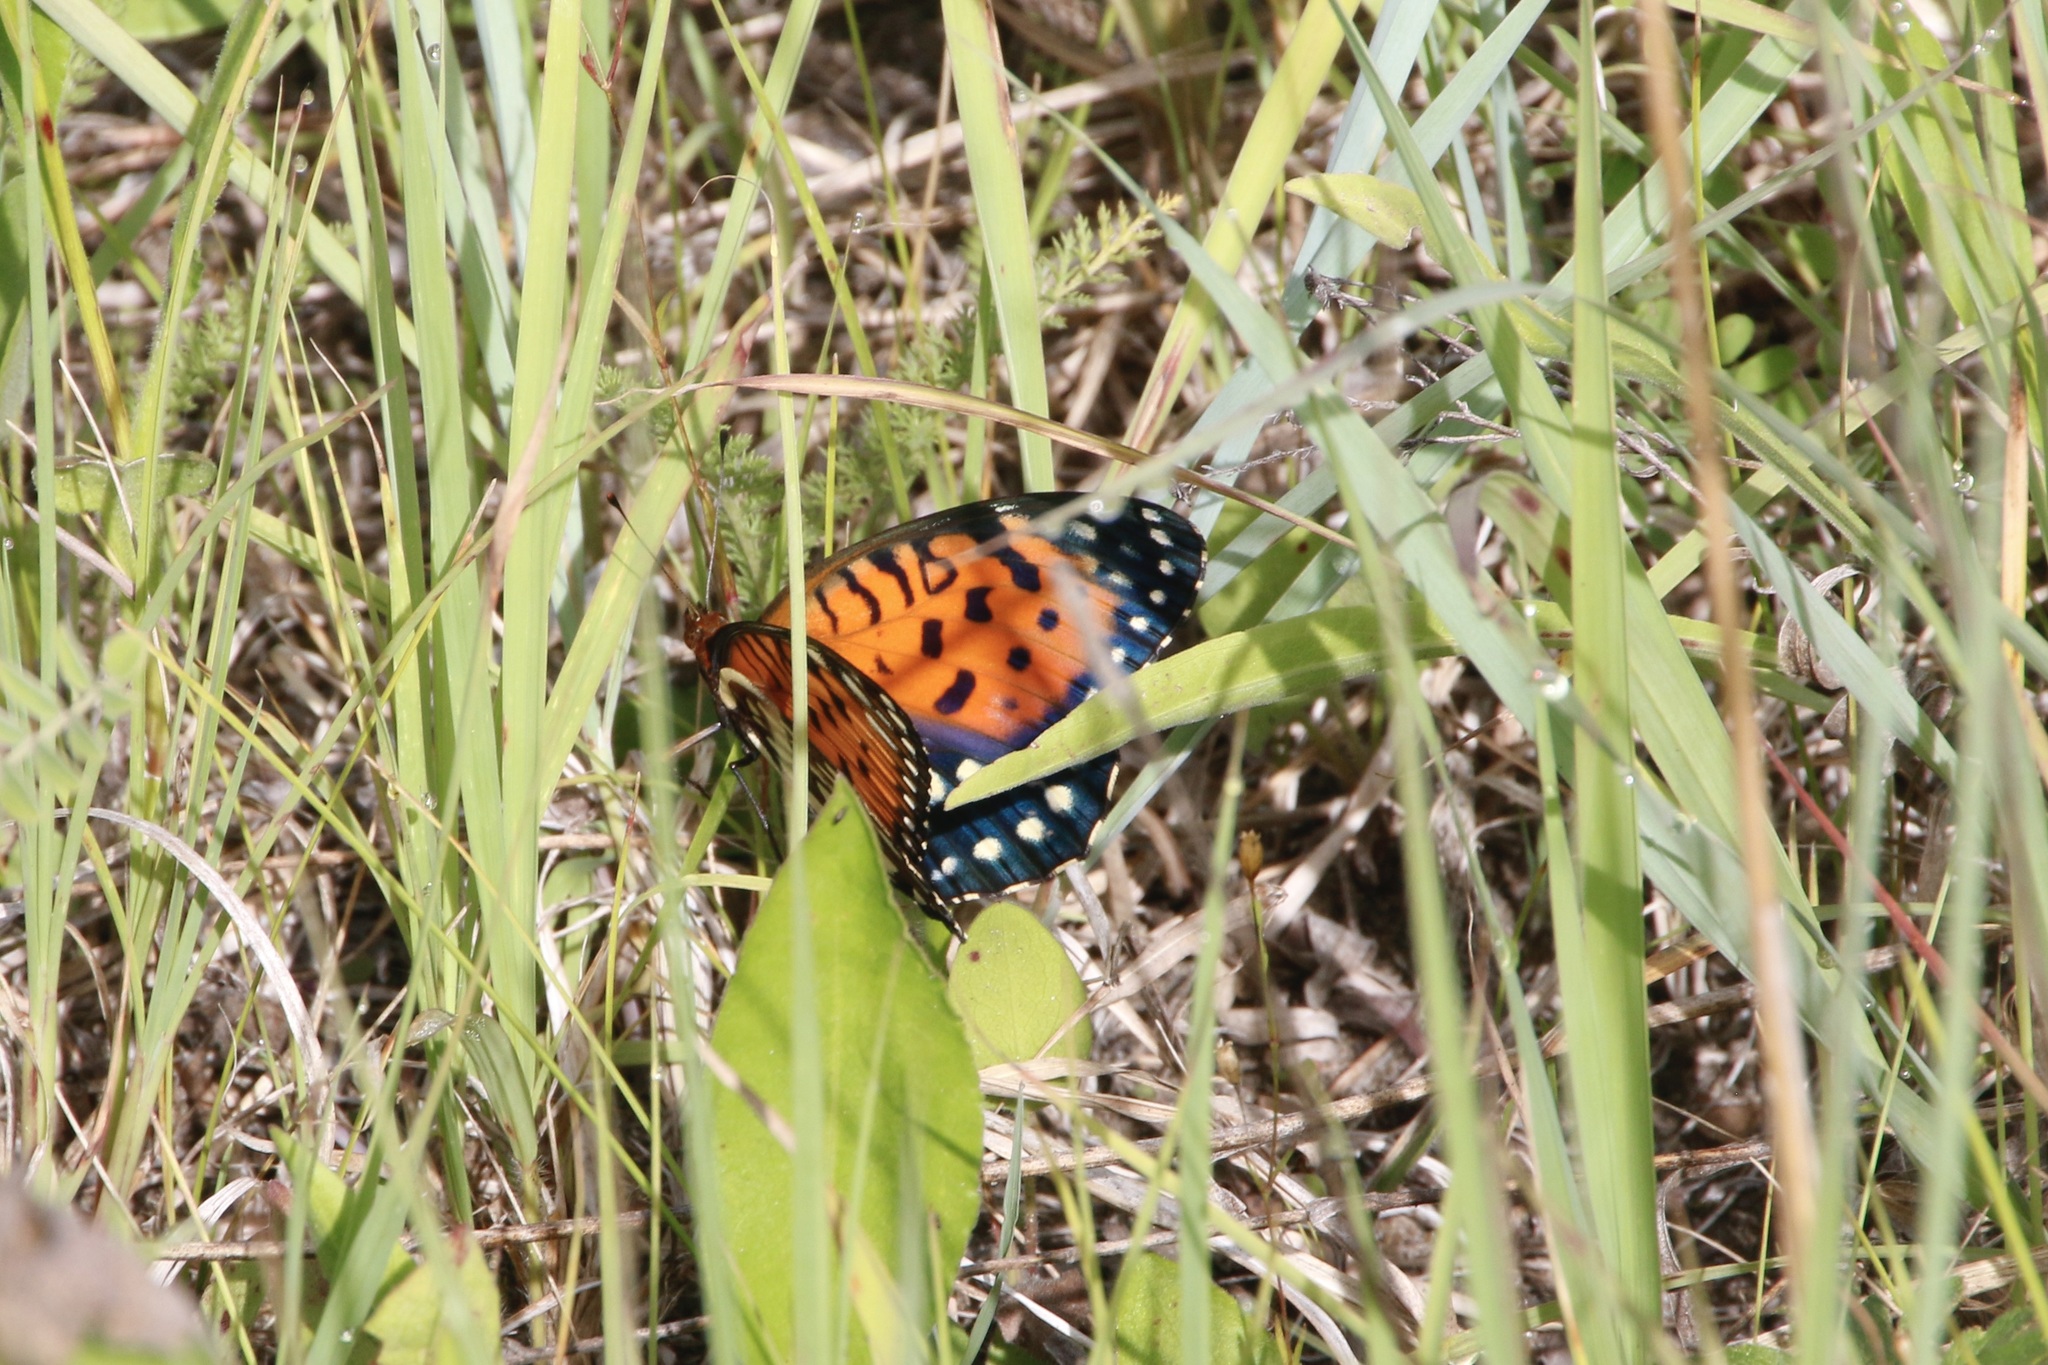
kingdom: Animalia
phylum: Arthropoda
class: Insecta
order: Lepidoptera
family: Nymphalidae
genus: Speyeria
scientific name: Speyeria idalia
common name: Regal fritillary
